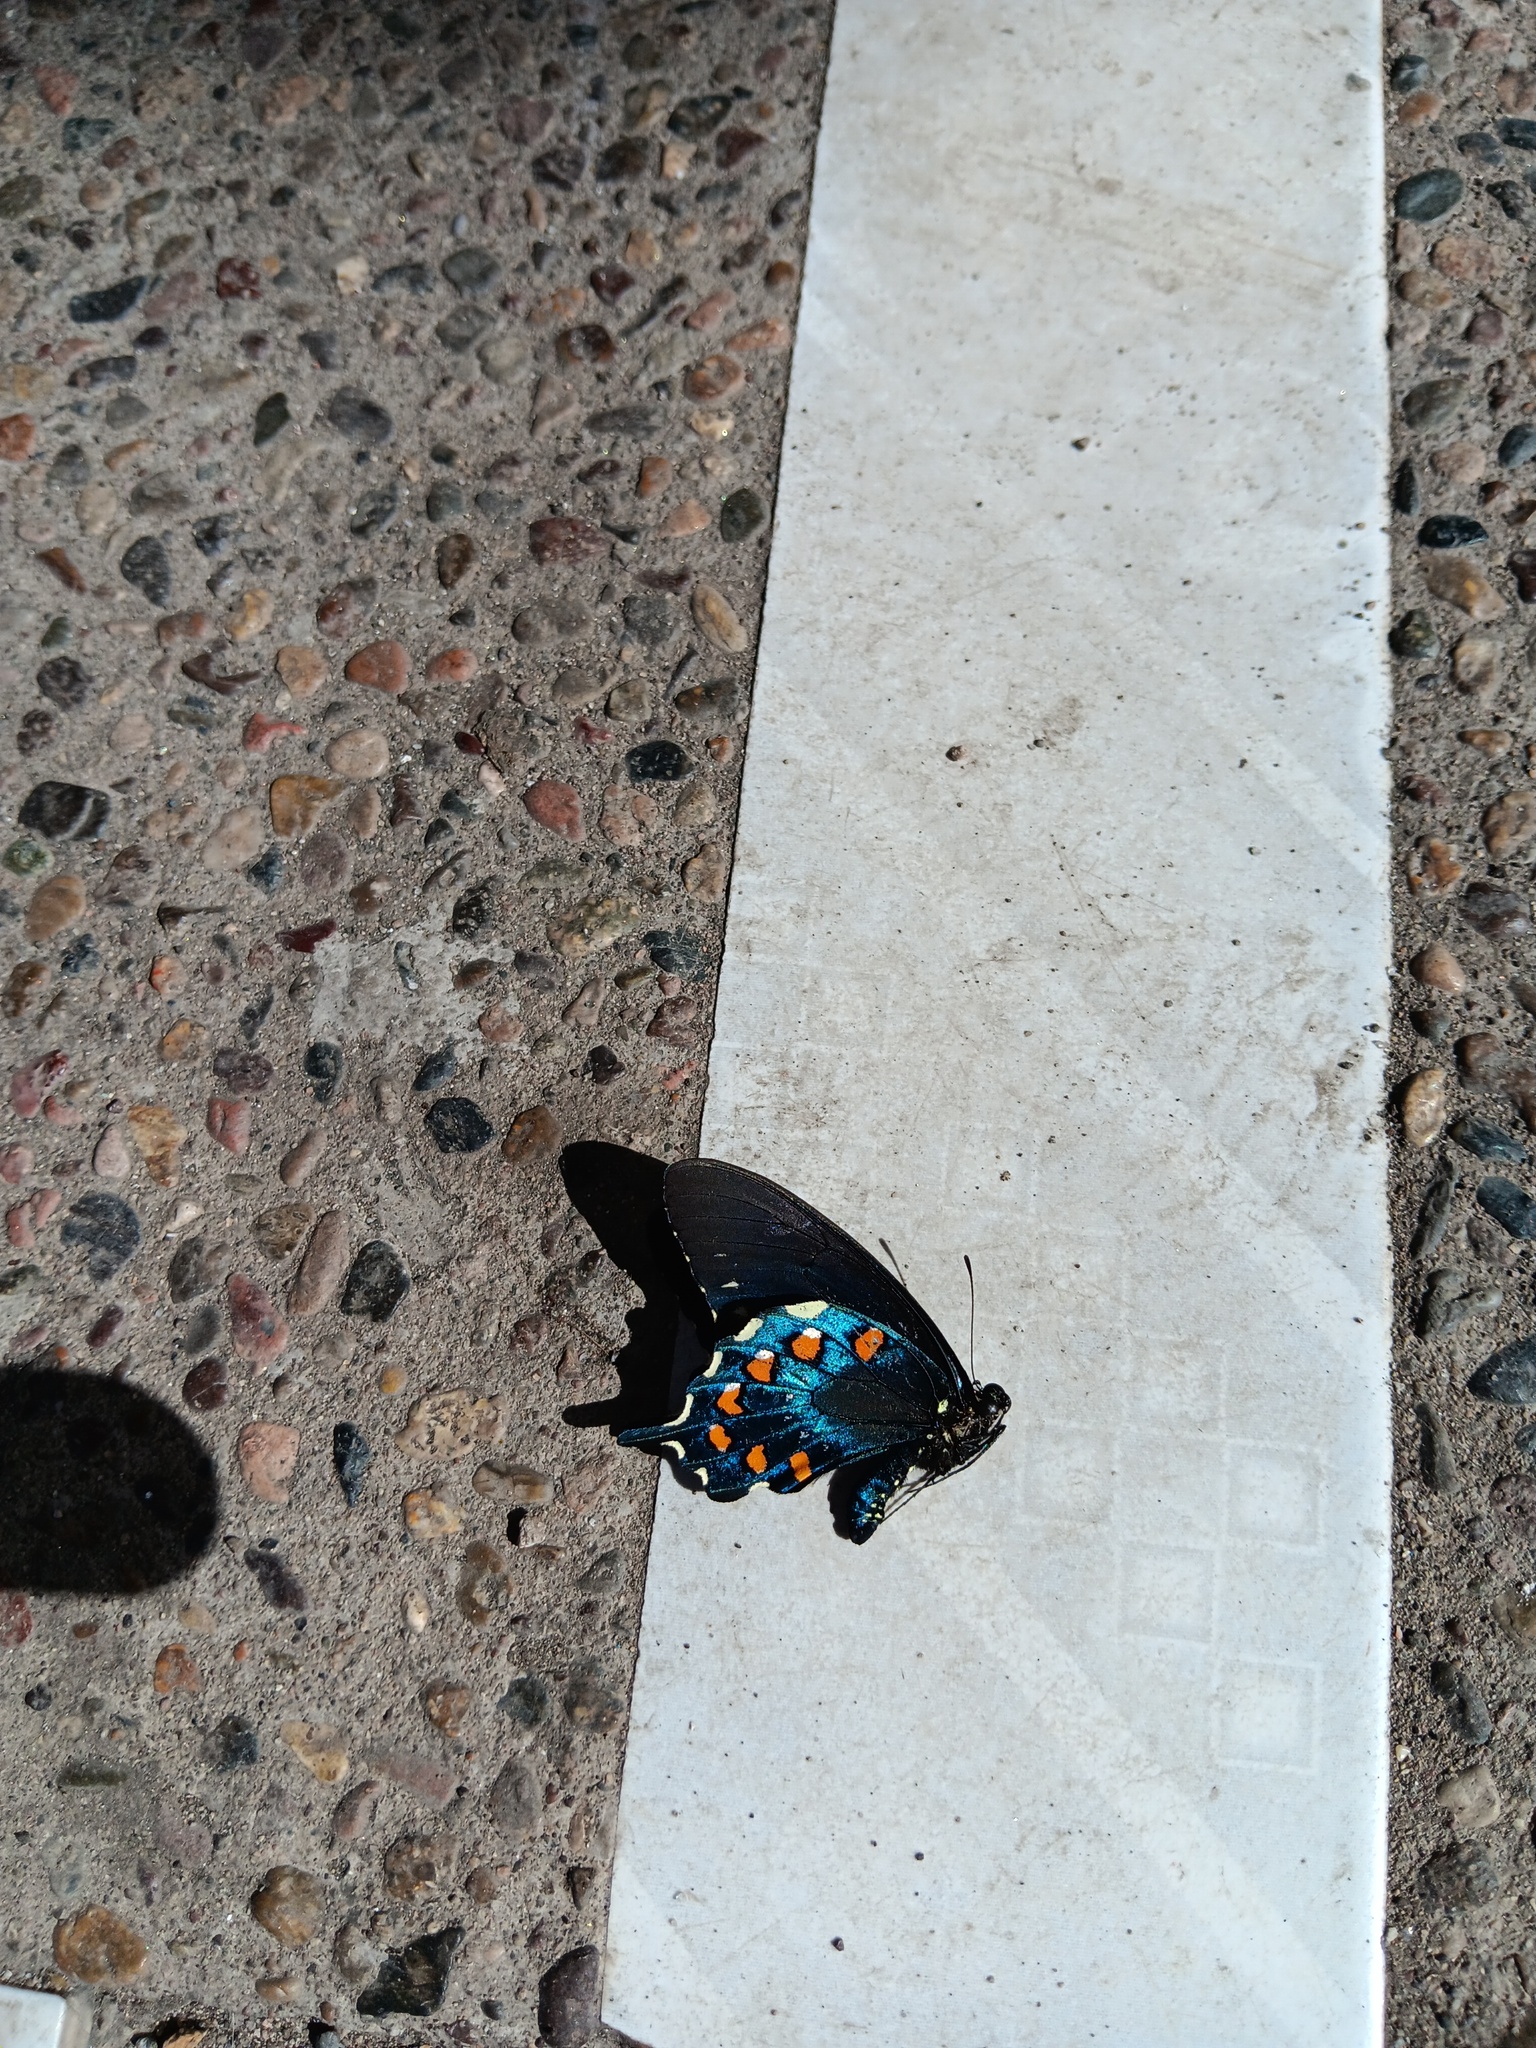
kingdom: Animalia
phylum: Arthropoda
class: Insecta
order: Lepidoptera
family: Papilionidae
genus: Battus
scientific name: Battus philenor
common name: Pipevine swallowtail
